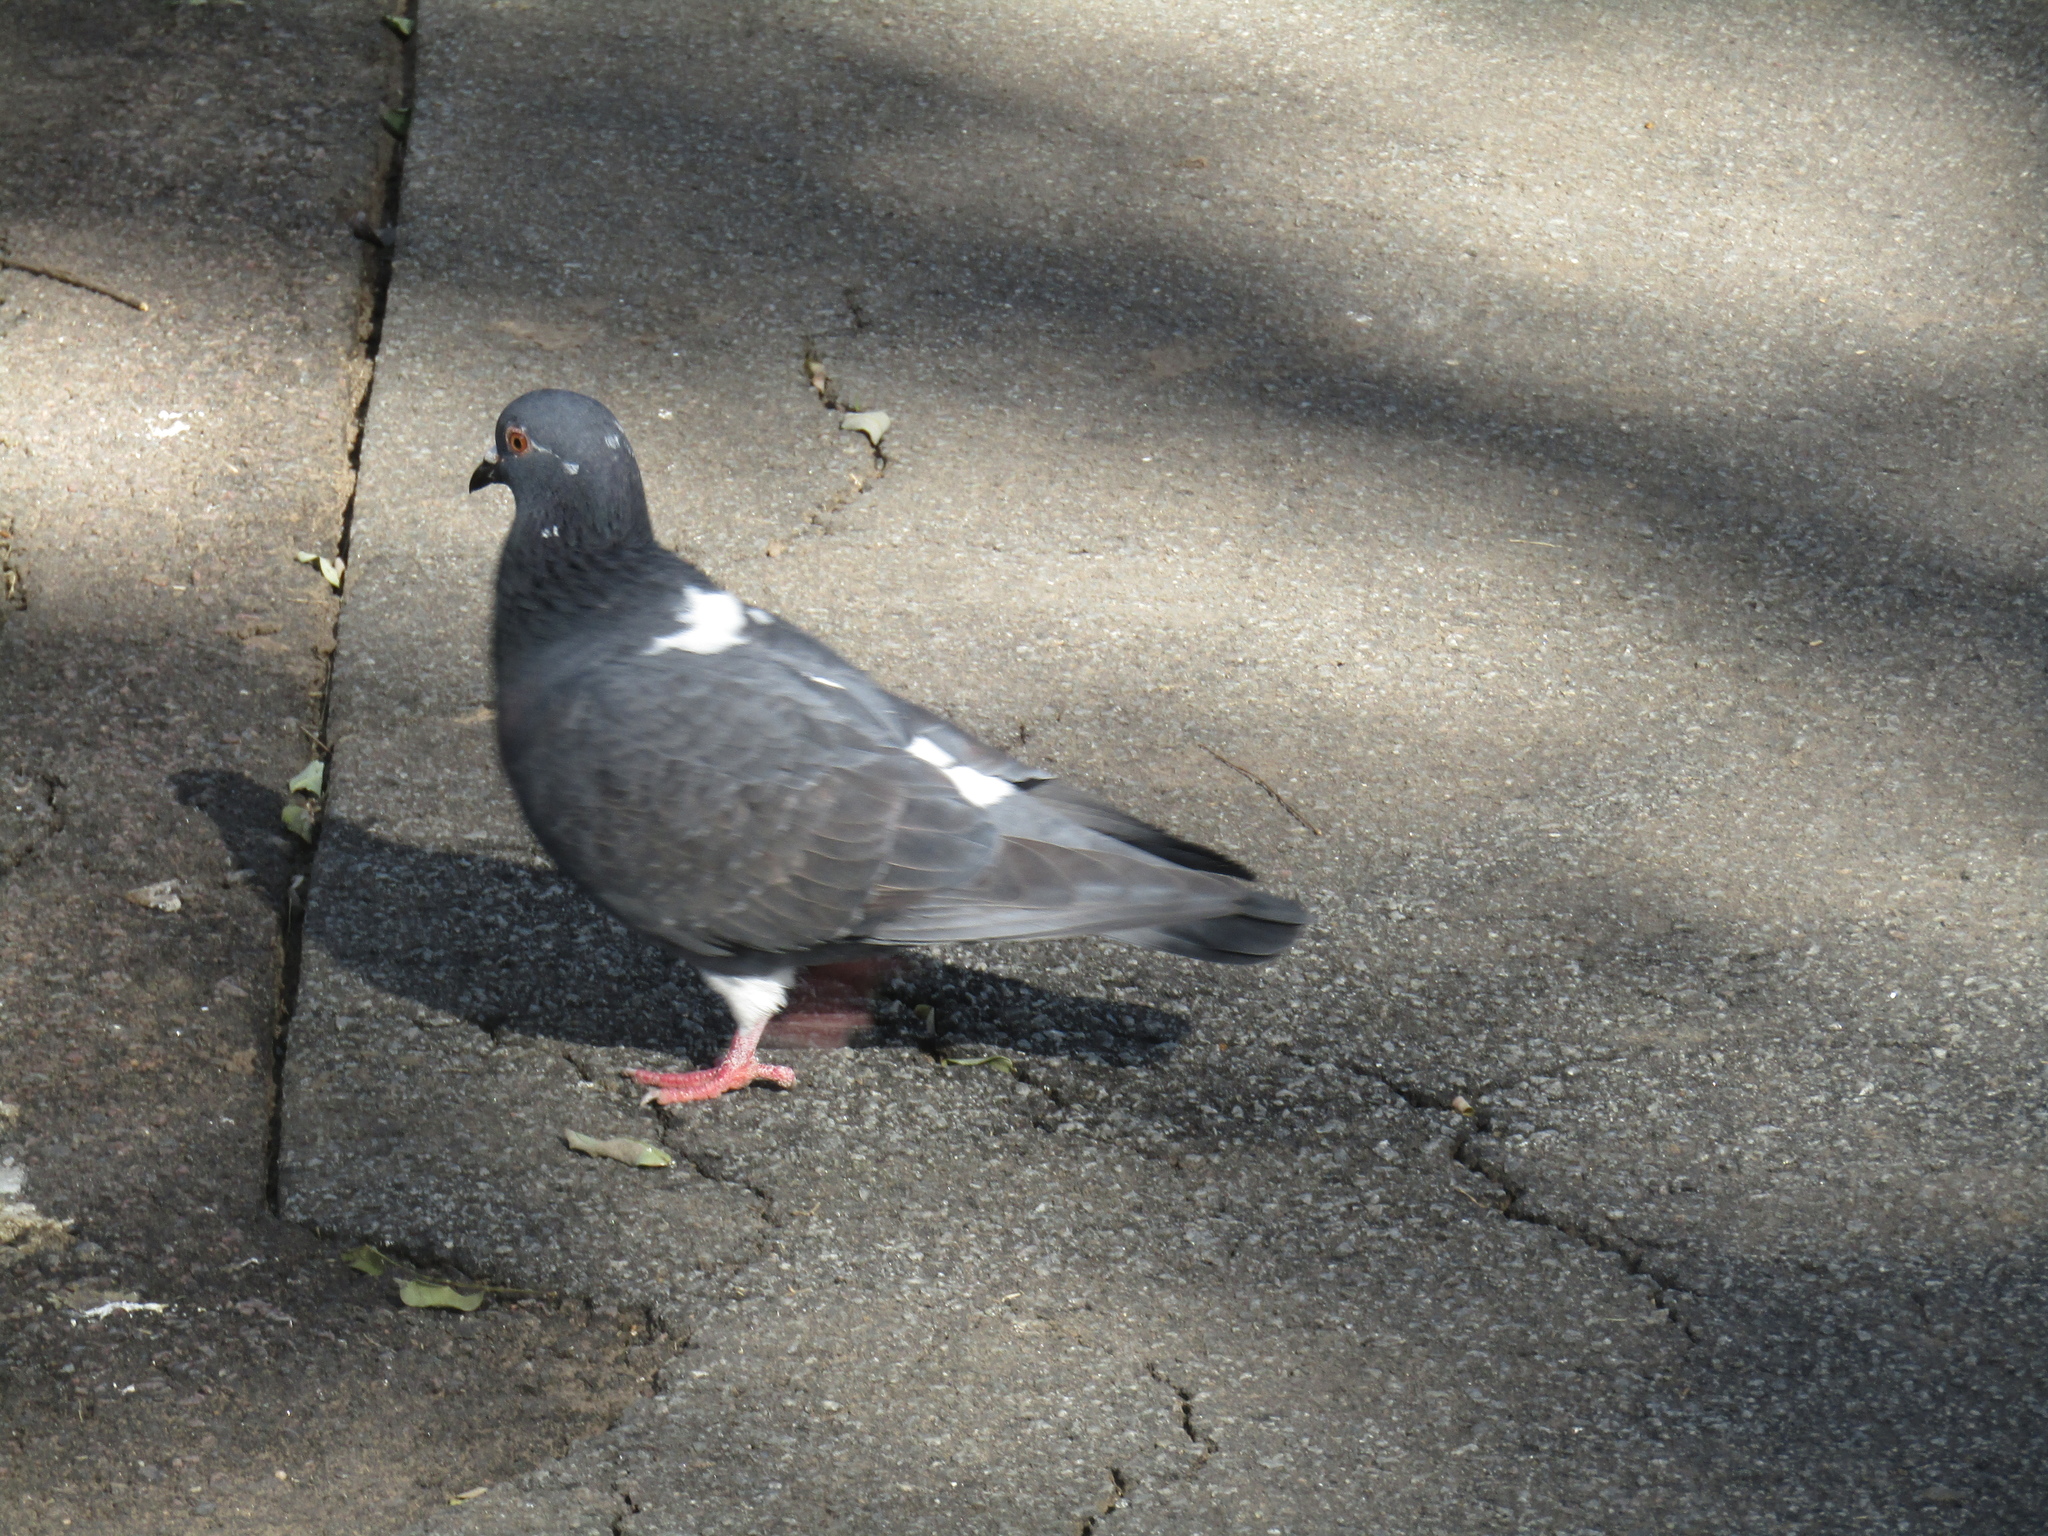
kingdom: Animalia
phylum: Chordata
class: Aves
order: Columbiformes
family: Columbidae
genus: Columba
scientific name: Columba livia
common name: Rock pigeon
